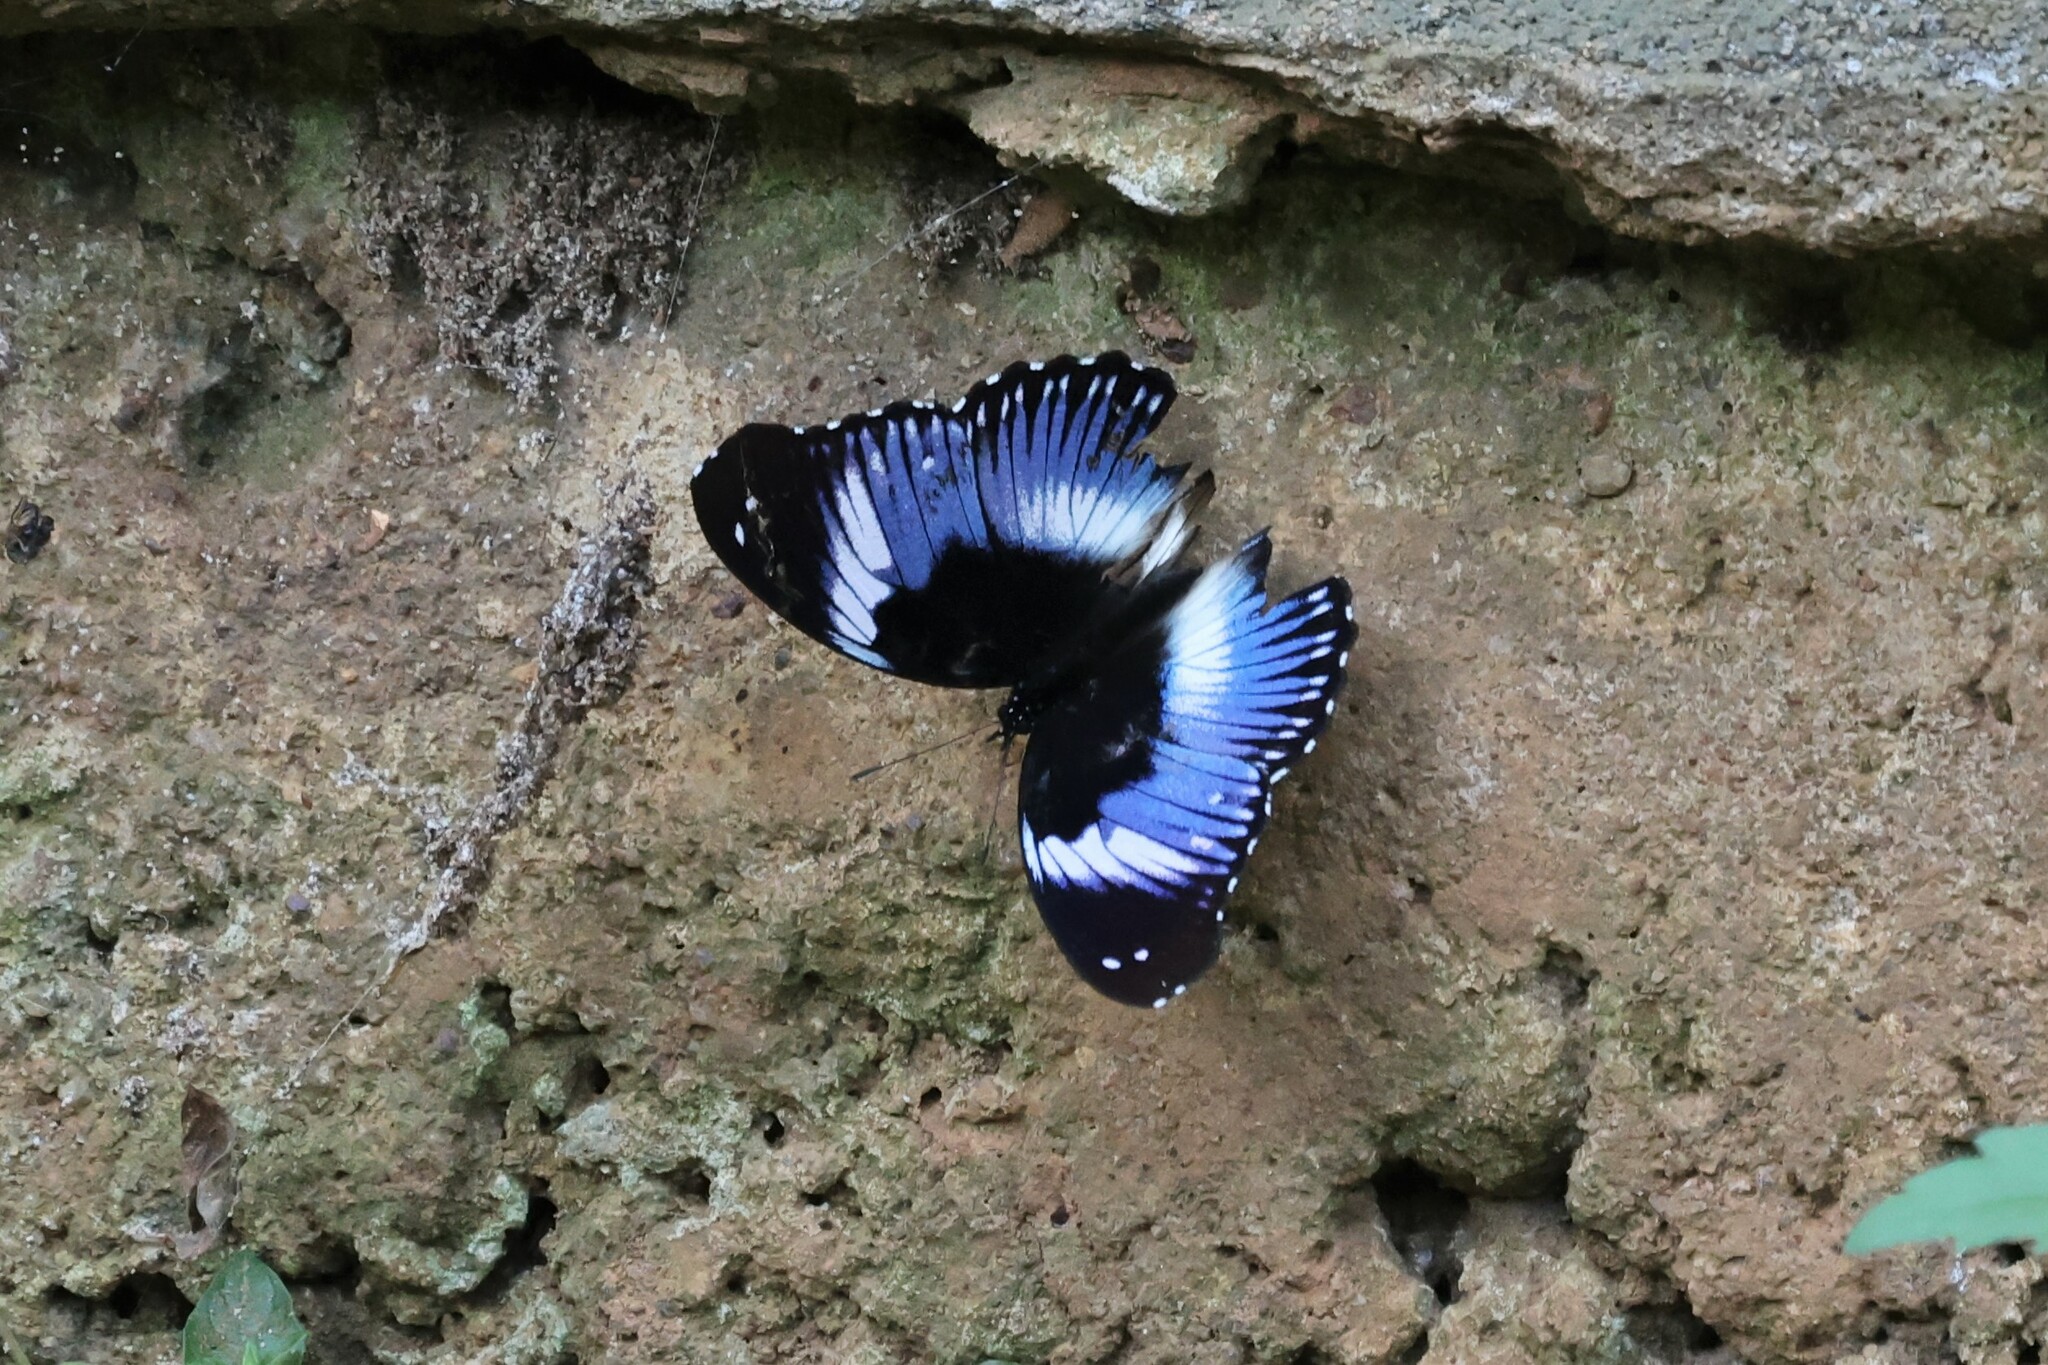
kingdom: Animalia
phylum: Arthropoda
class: Insecta
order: Lepidoptera
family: Nymphalidae
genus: Hypolimnas
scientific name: Hypolimnas salmacis
